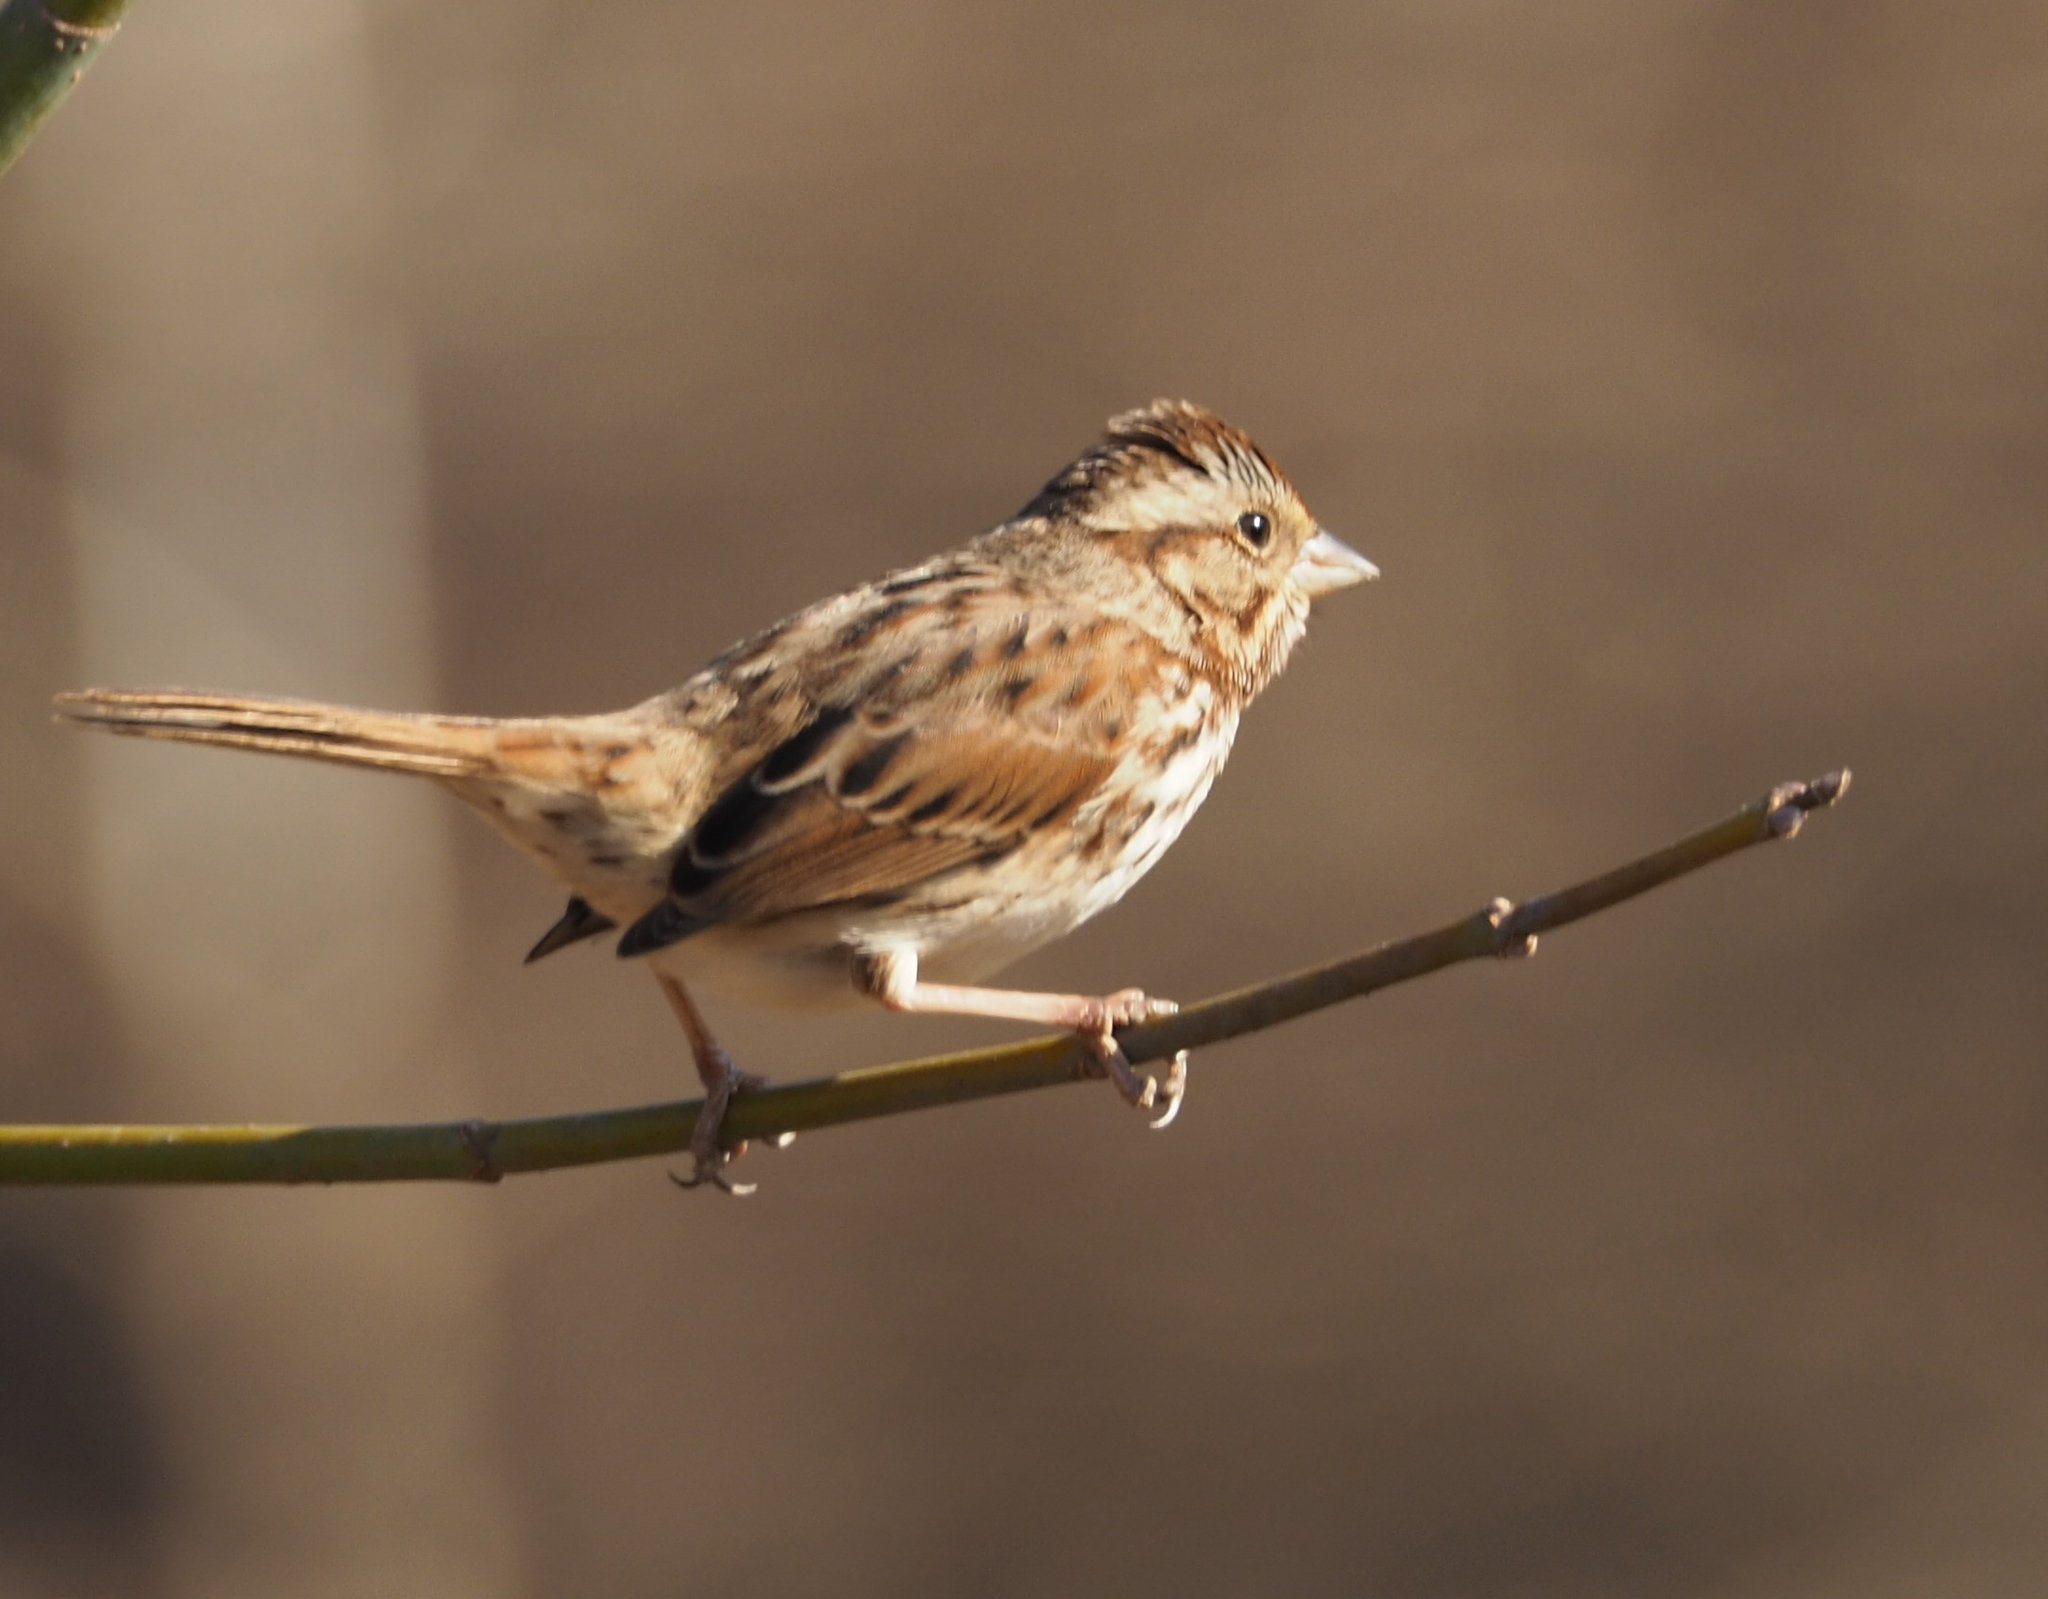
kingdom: Animalia
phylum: Chordata
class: Aves
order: Passeriformes
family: Passerellidae
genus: Melospiza
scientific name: Melospiza melodia
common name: Song sparrow
